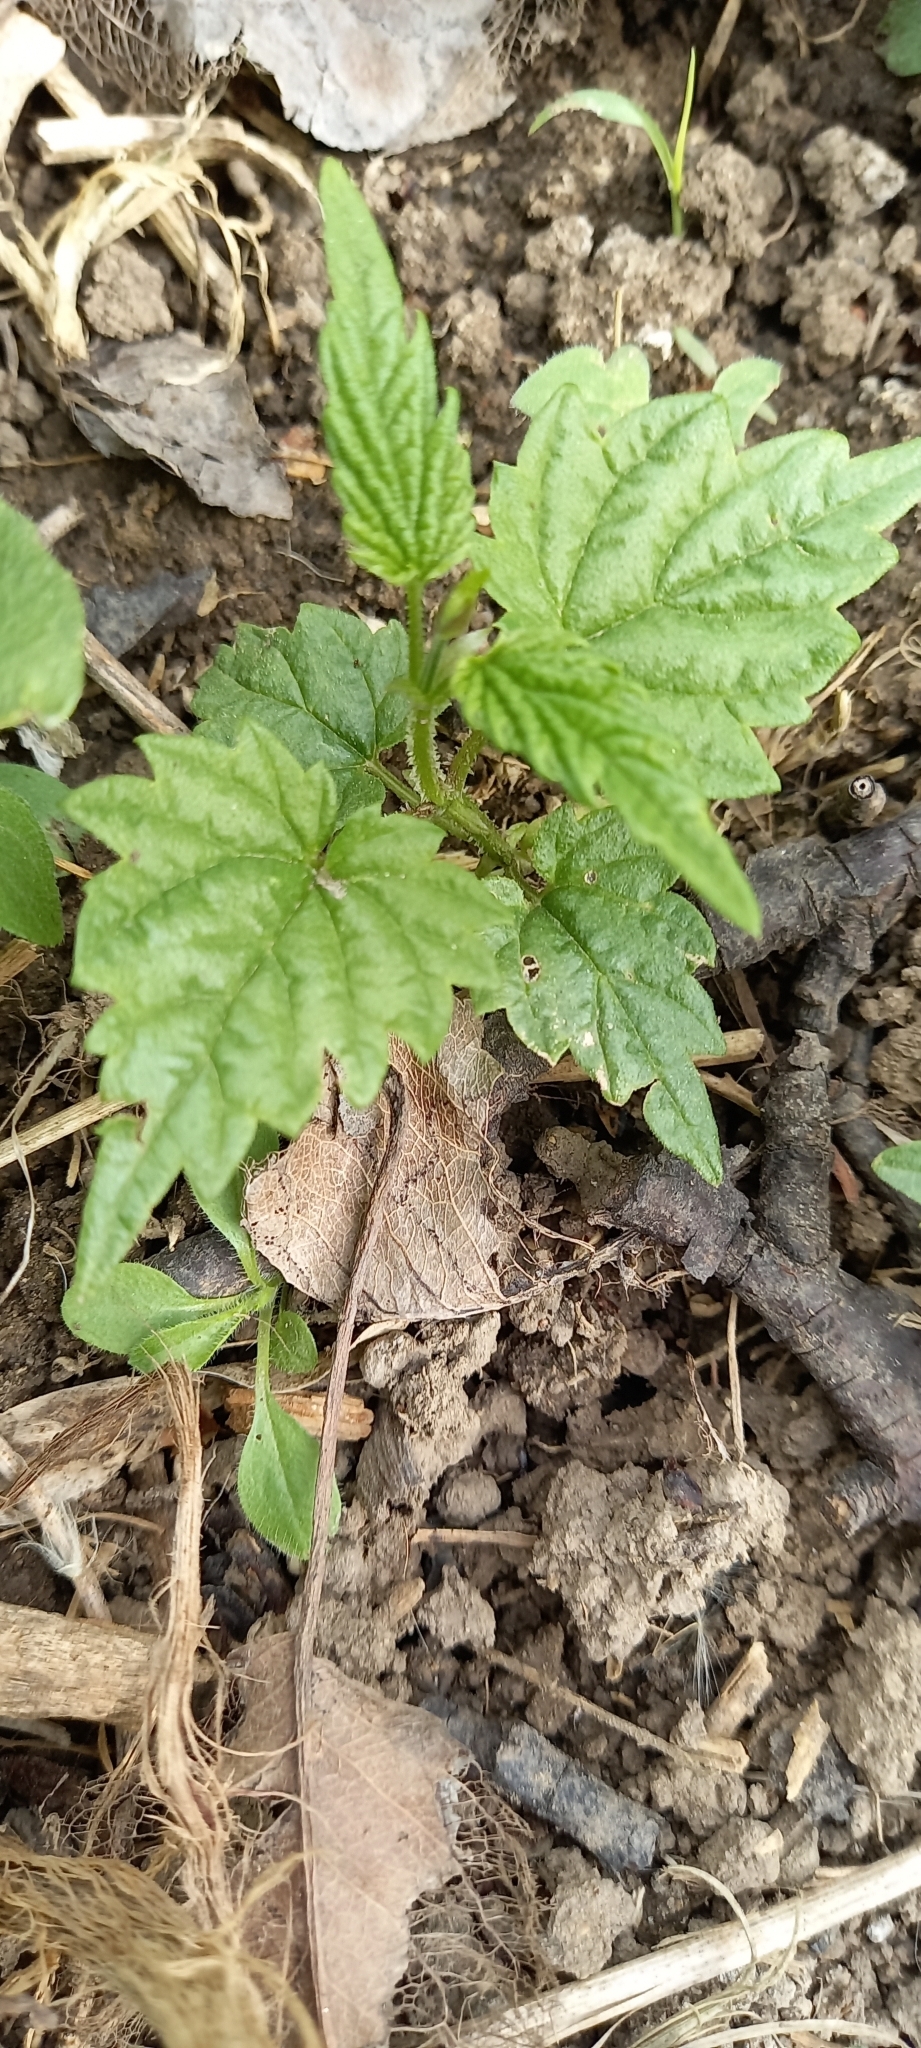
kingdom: Plantae
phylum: Tracheophyta
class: Magnoliopsida
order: Rosales
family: Cannabaceae
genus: Humulus
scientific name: Humulus lupulus
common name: Hop
